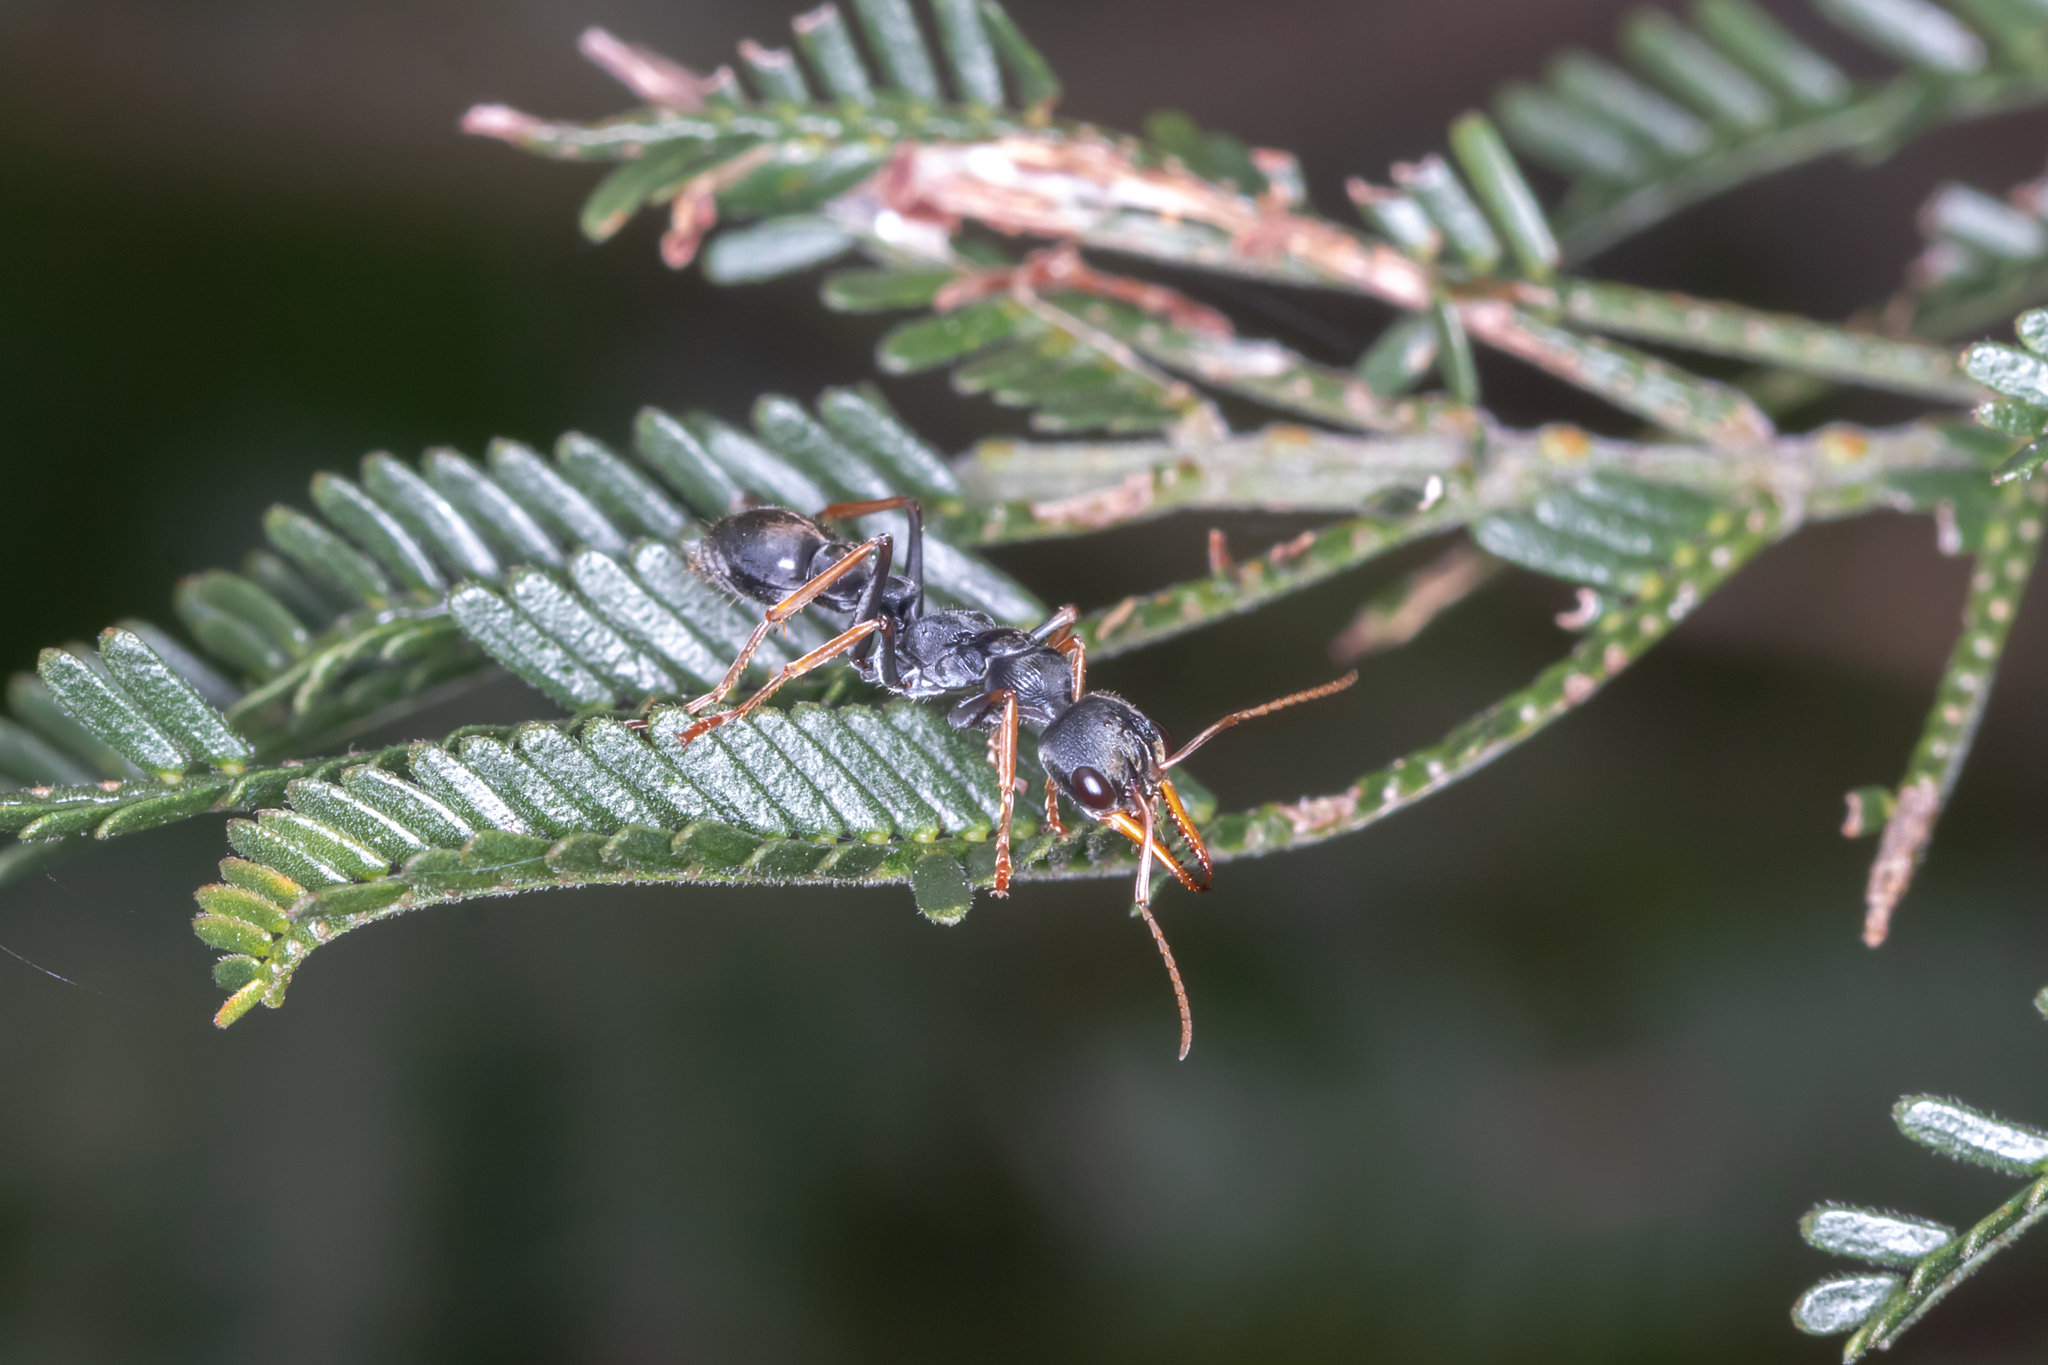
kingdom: Animalia
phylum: Arthropoda
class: Insecta
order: Hymenoptera
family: Formicidae
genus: Myrmecia
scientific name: Myrmecia pilosula
